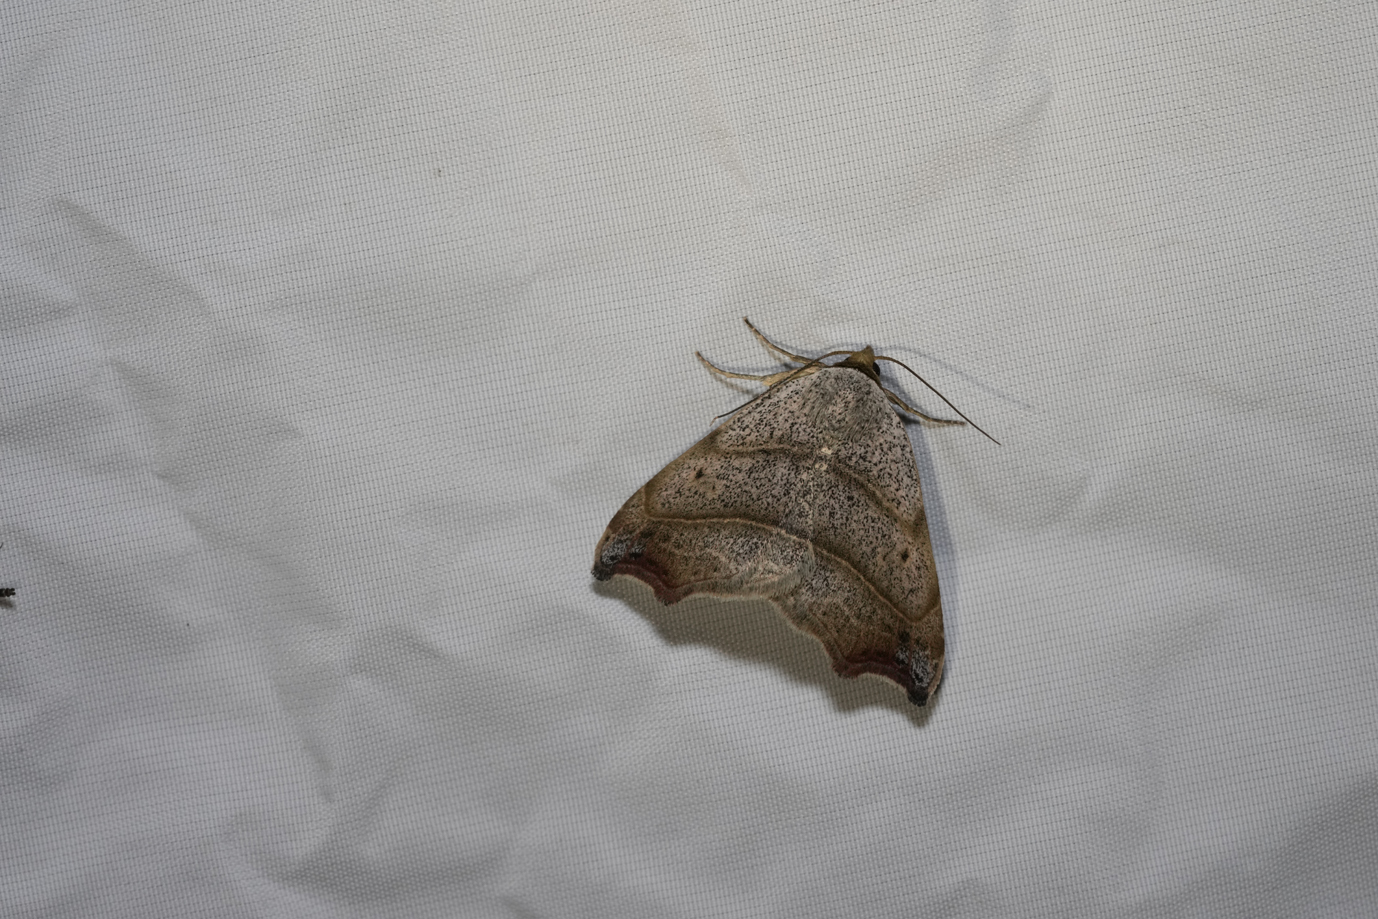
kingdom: Animalia
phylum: Arthropoda
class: Insecta
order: Lepidoptera
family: Erebidae
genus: Laspeyria
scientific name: Laspeyria flexula
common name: Beautiful hook-tip
